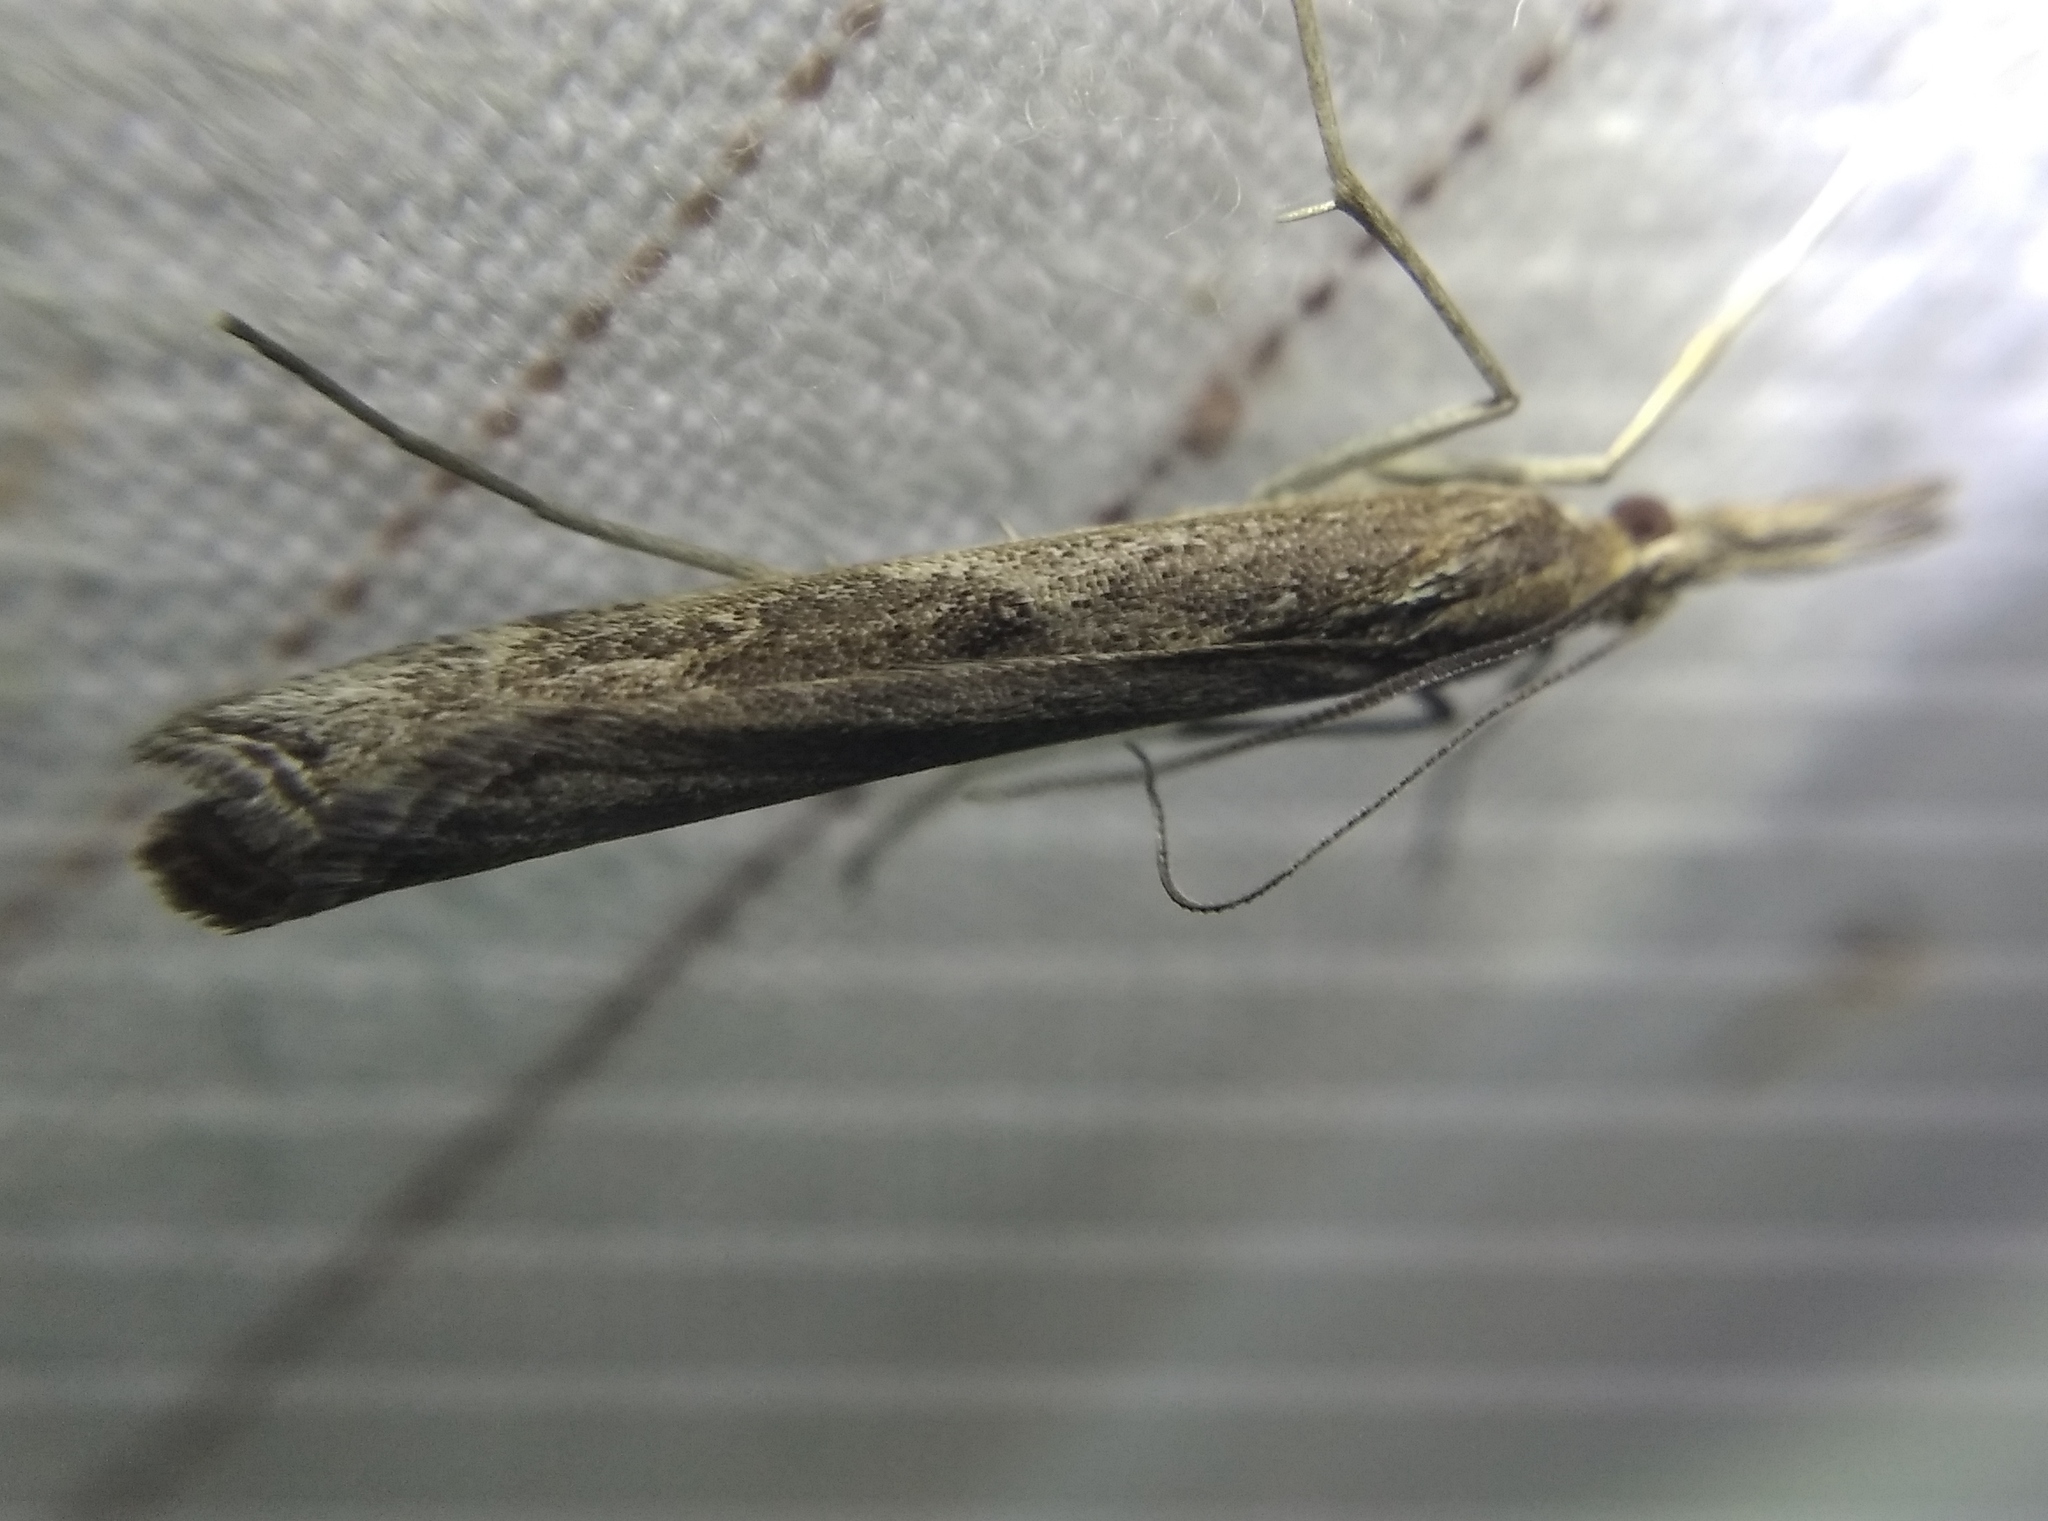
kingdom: Animalia
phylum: Arthropoda
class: Insecta
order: Lepidoptera
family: Crambidae
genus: Pediasia
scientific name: Pediasia matricella
